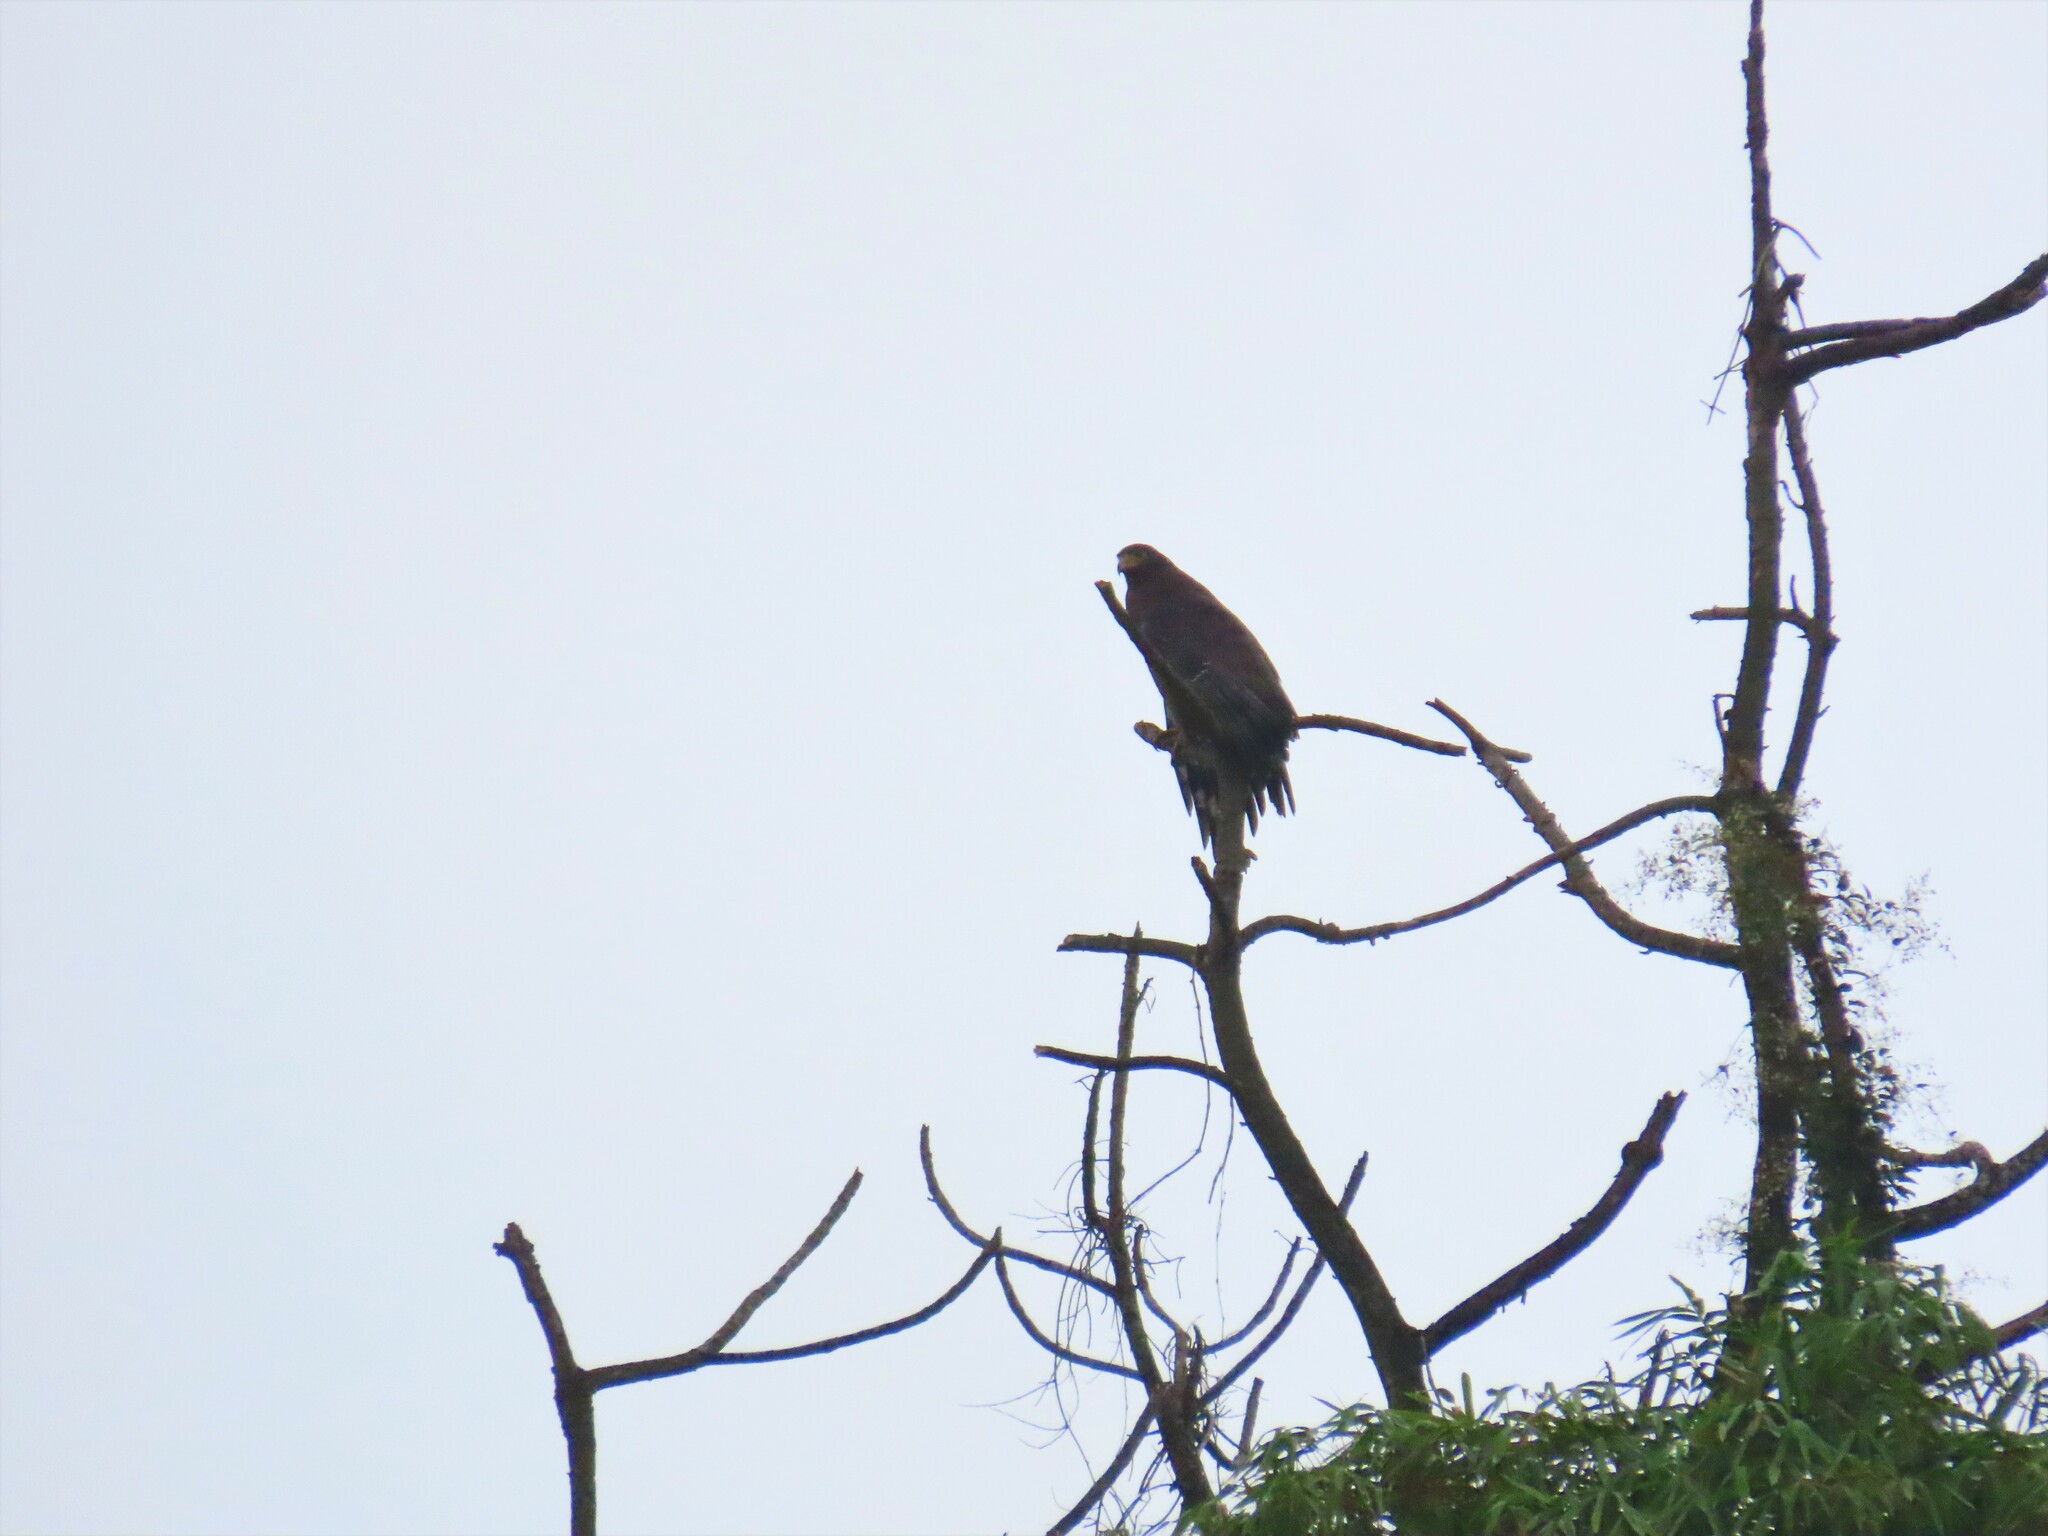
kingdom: Animalia
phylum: Chordata
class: Aves
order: Accipitriformes
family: Accipitridae
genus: Spilornis
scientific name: Spilornis cheela
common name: Crested serpent eagle
